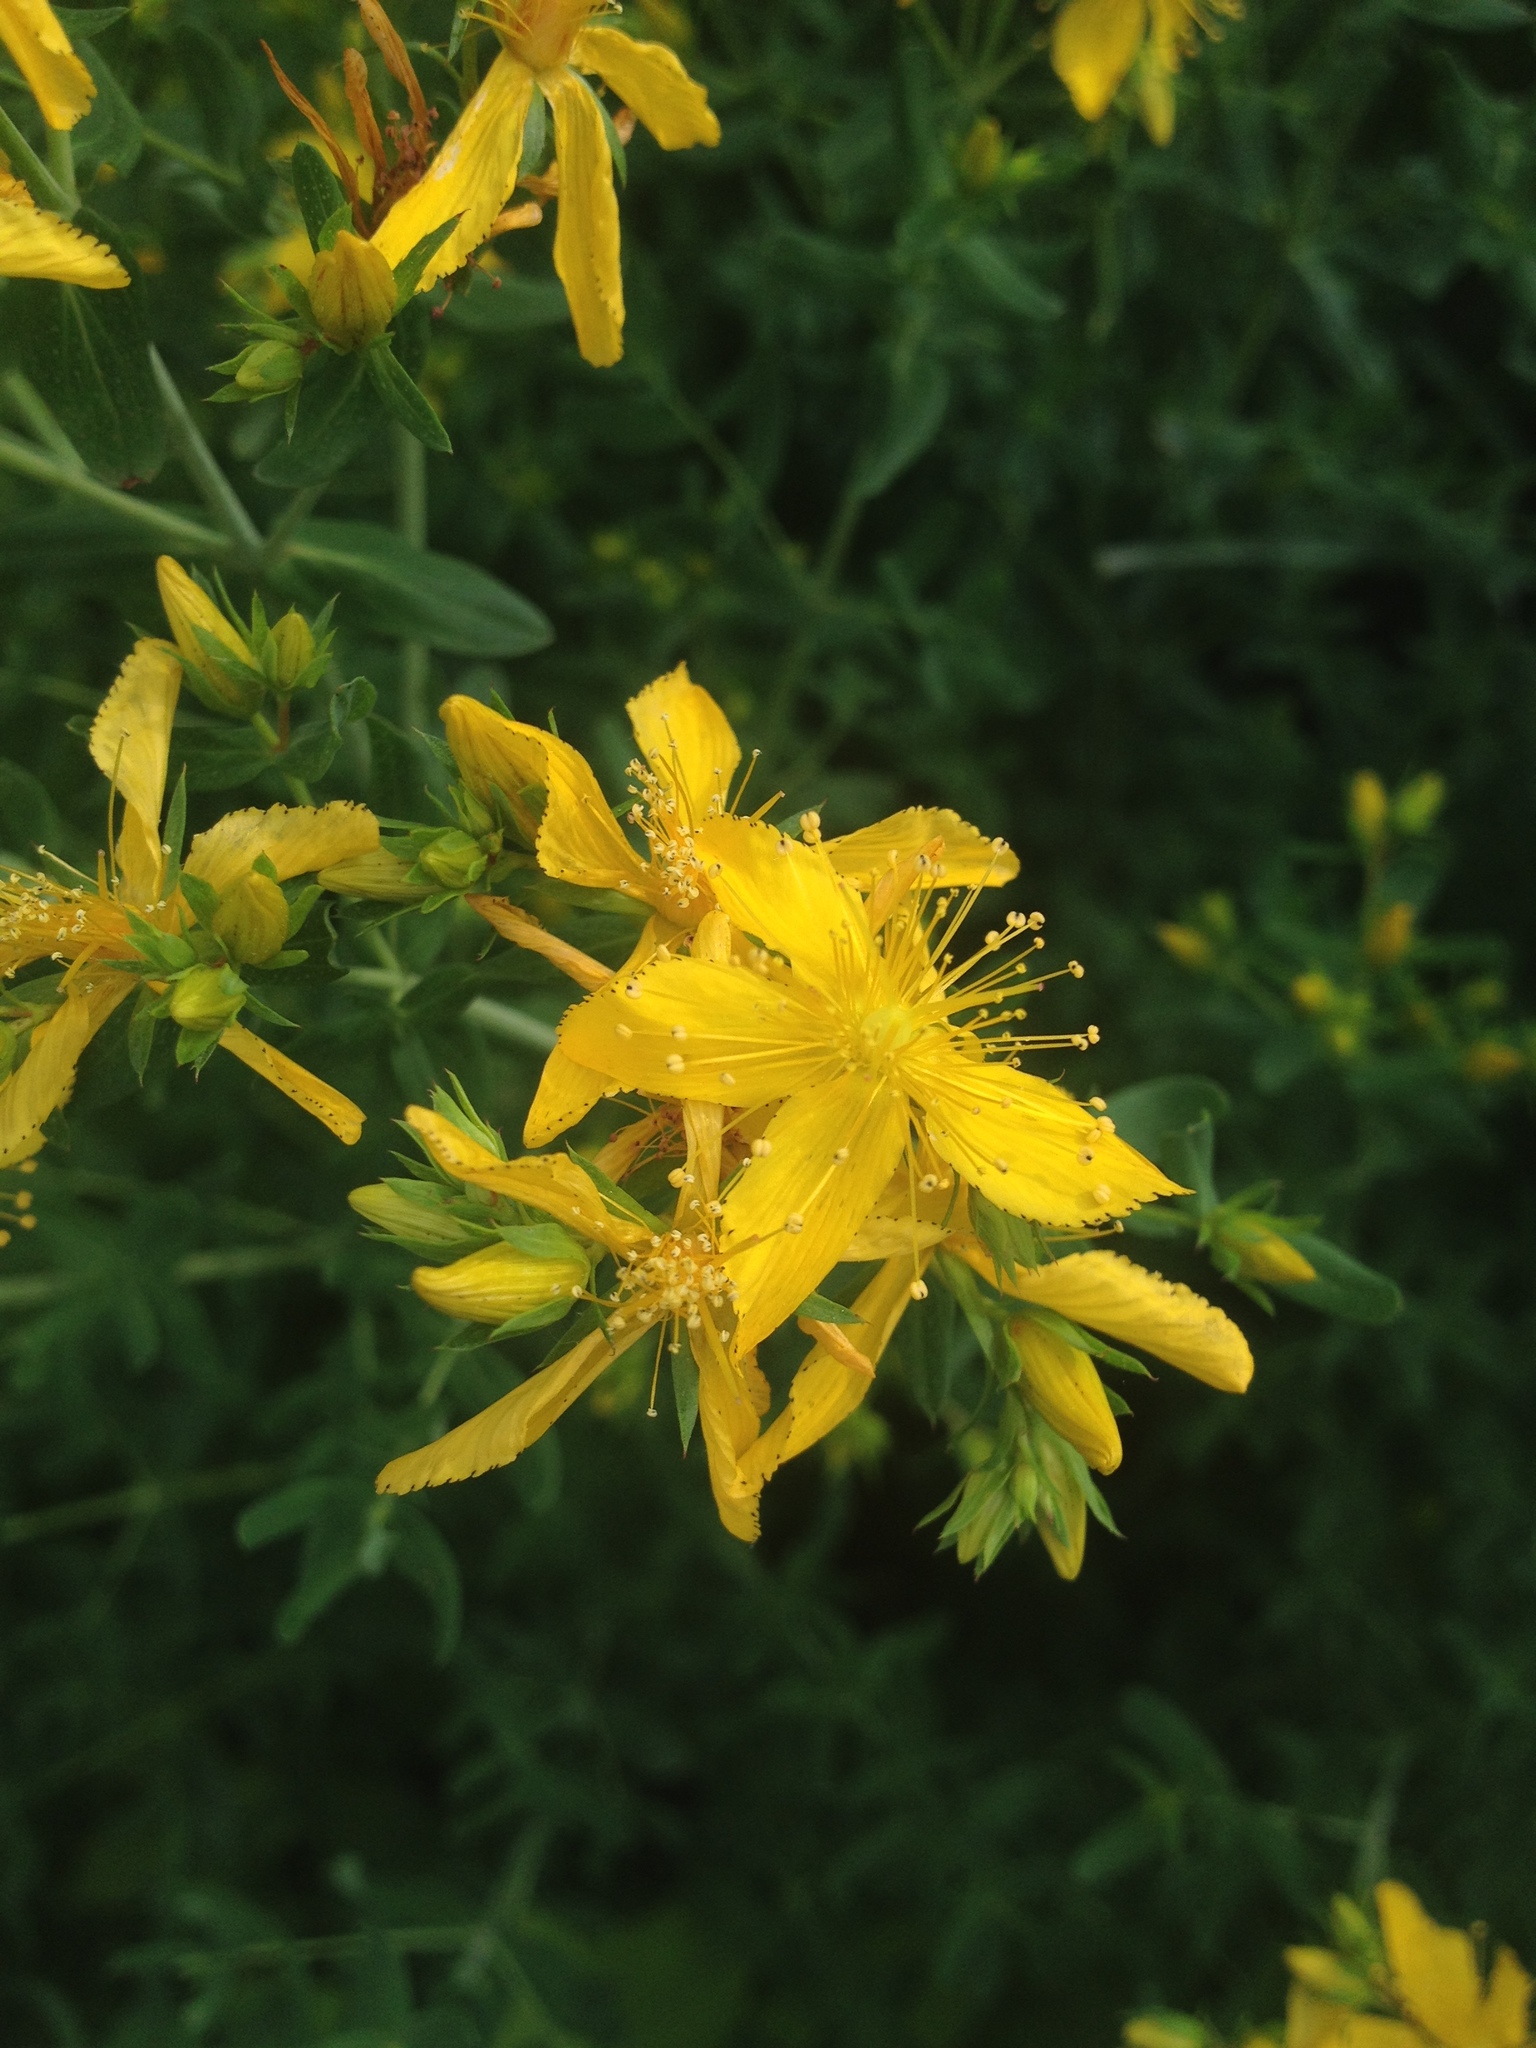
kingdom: Plantae
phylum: Tracheophyta
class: Magnoliopsida
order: Malpighiales
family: Hypericaceae
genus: Hypericum
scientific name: Hypericum perforatum
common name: Common st. johnswort
